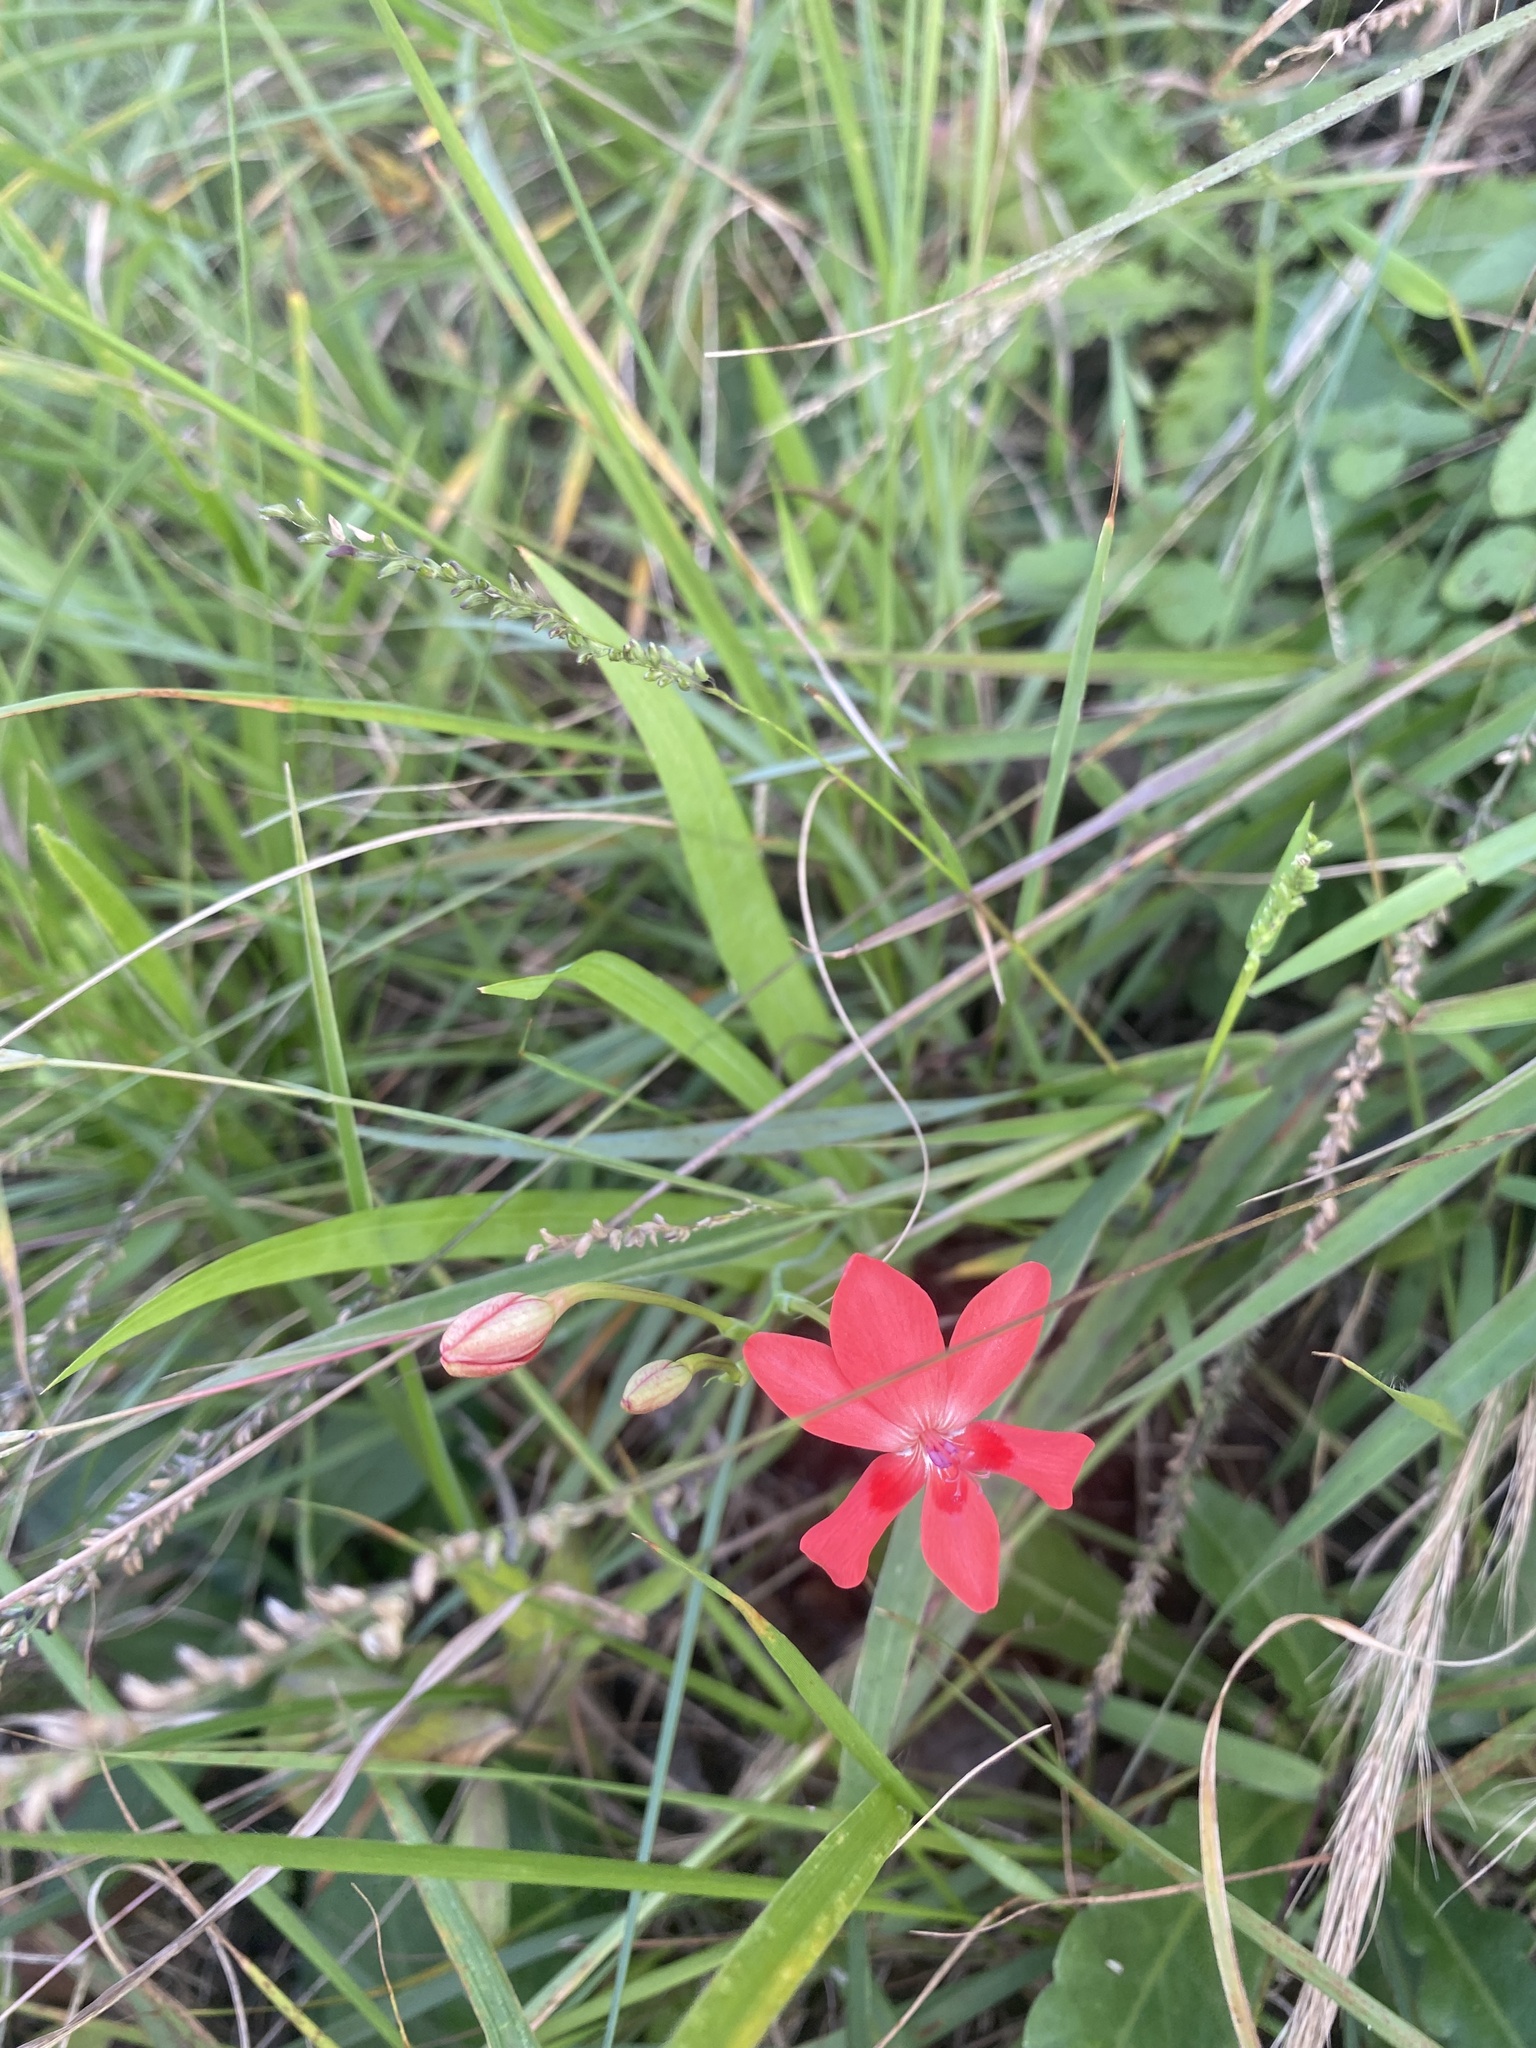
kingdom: Plantae
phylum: Tracheophyta
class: Liliopsida
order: Asparagales
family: Iridaceae
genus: Freesia
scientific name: Freesia laxa
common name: False freesia
